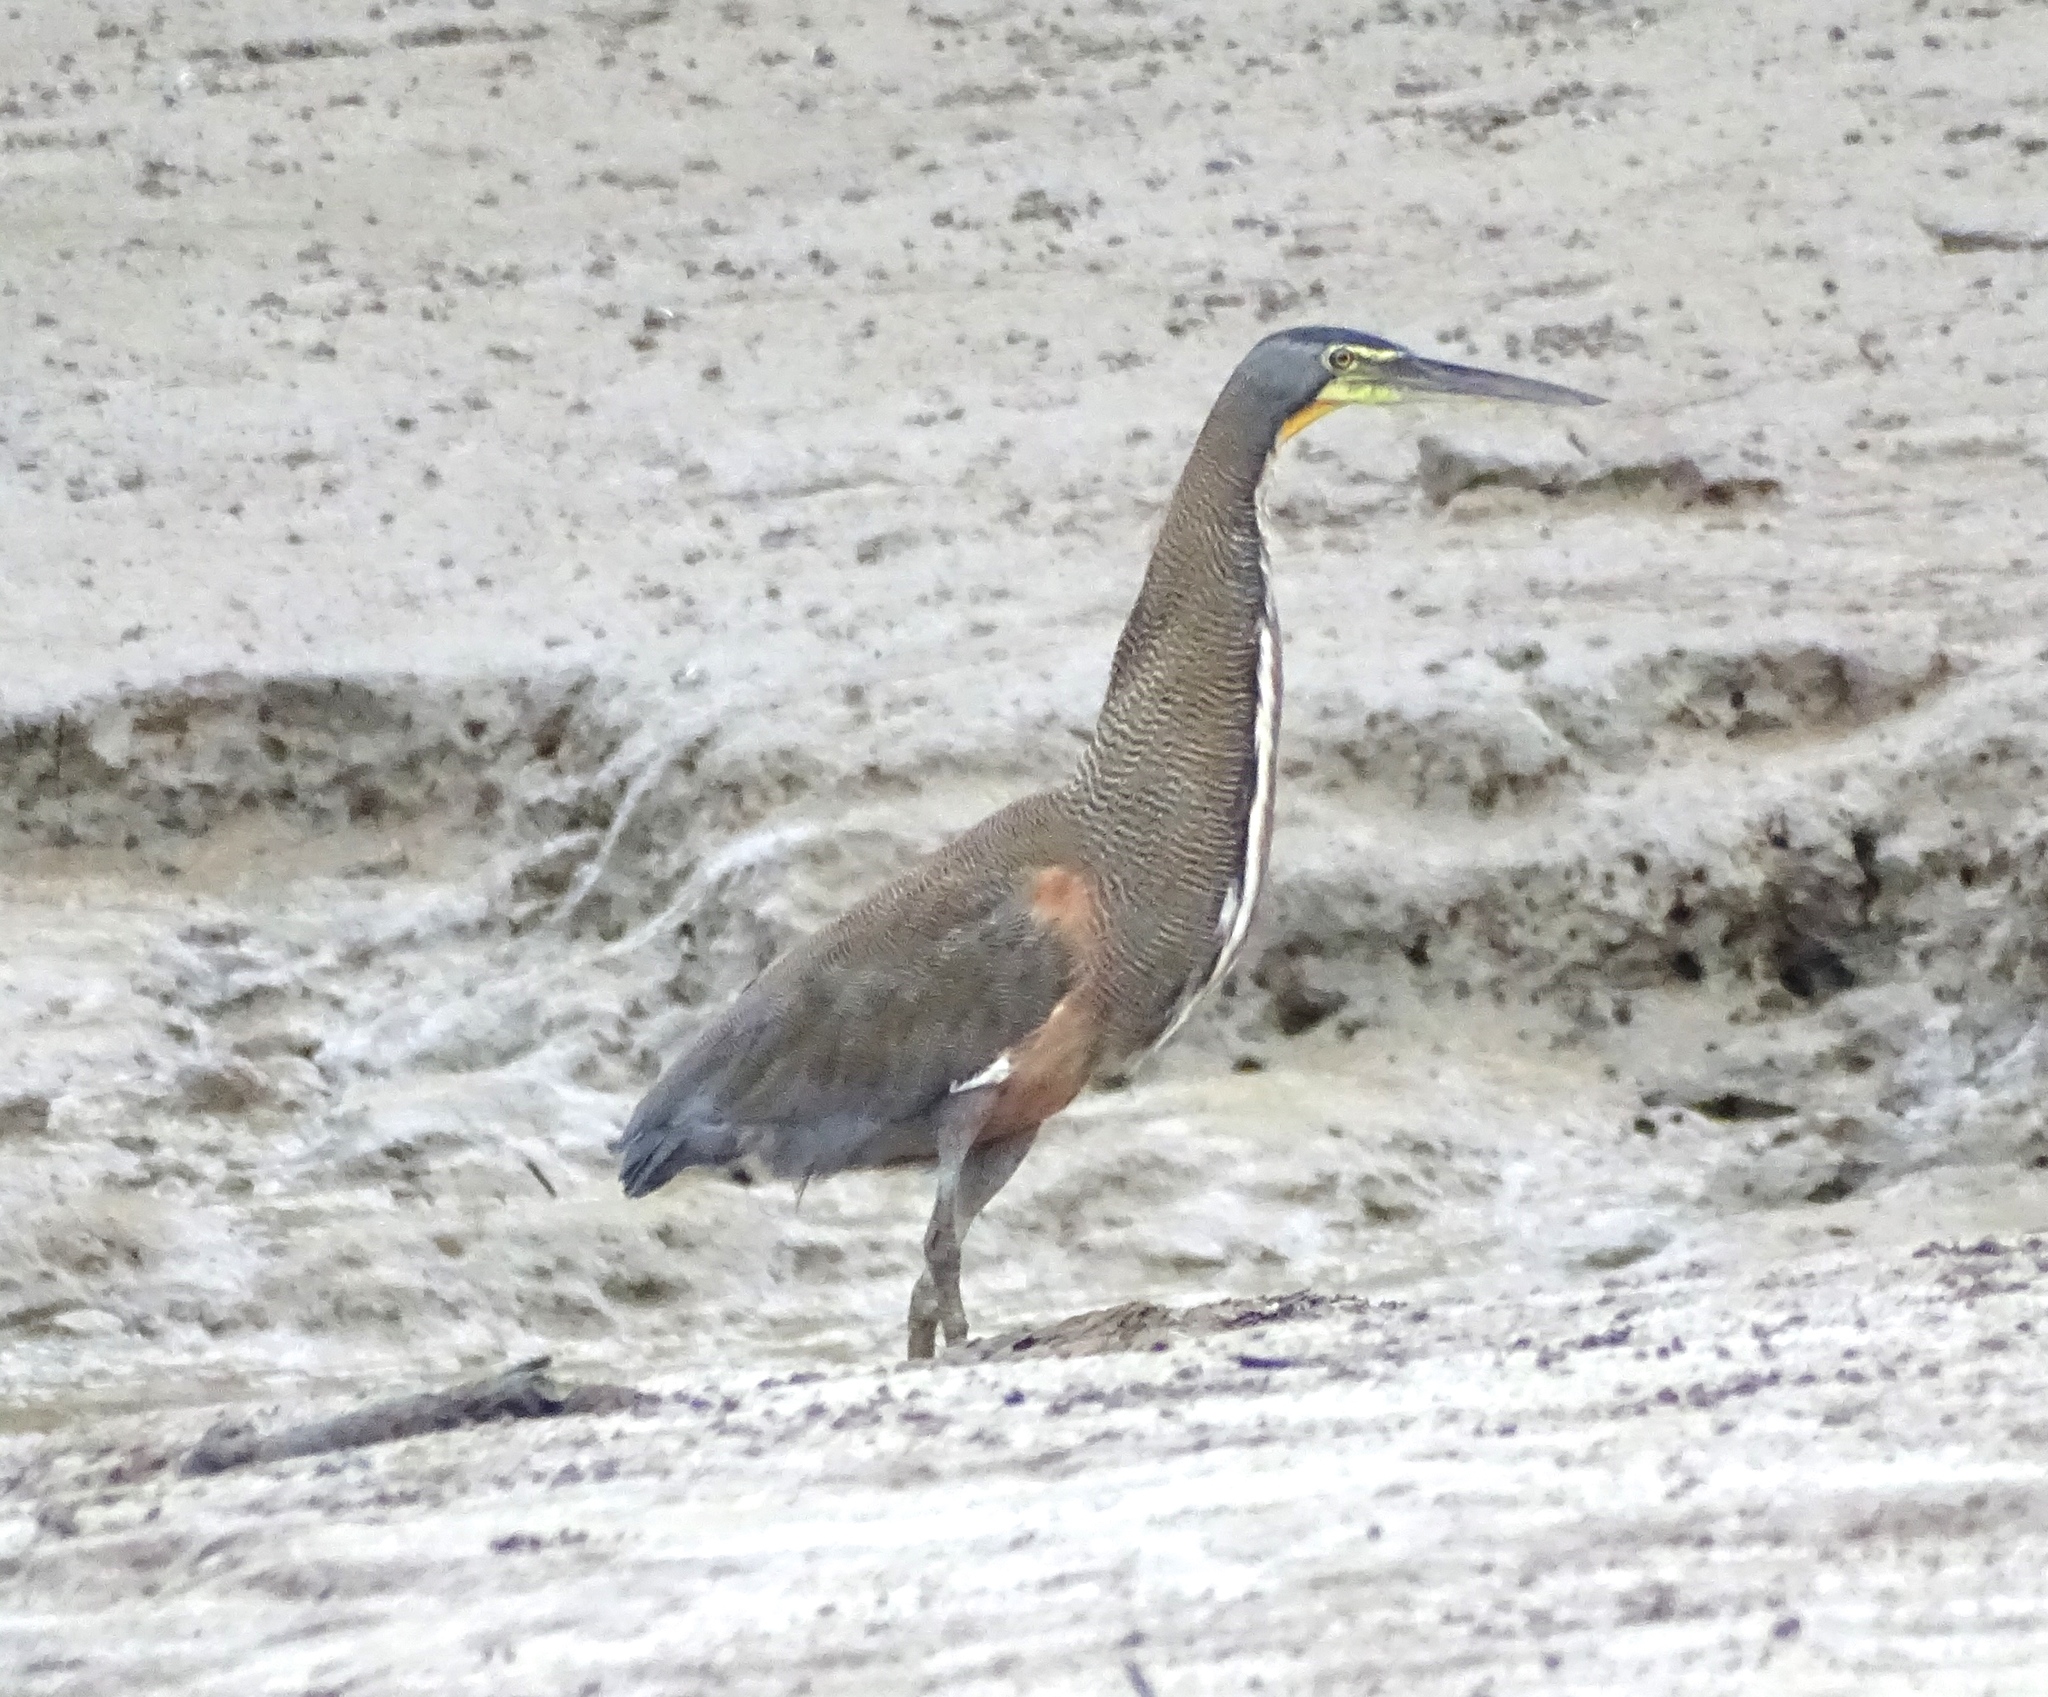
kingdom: Animalia
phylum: Chordata
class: Aves
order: Pelecaniformes
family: Ardeidae
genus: Tigrisoma
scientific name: Tigrisoma mexicanum
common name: Bare-throated tiger-heron
